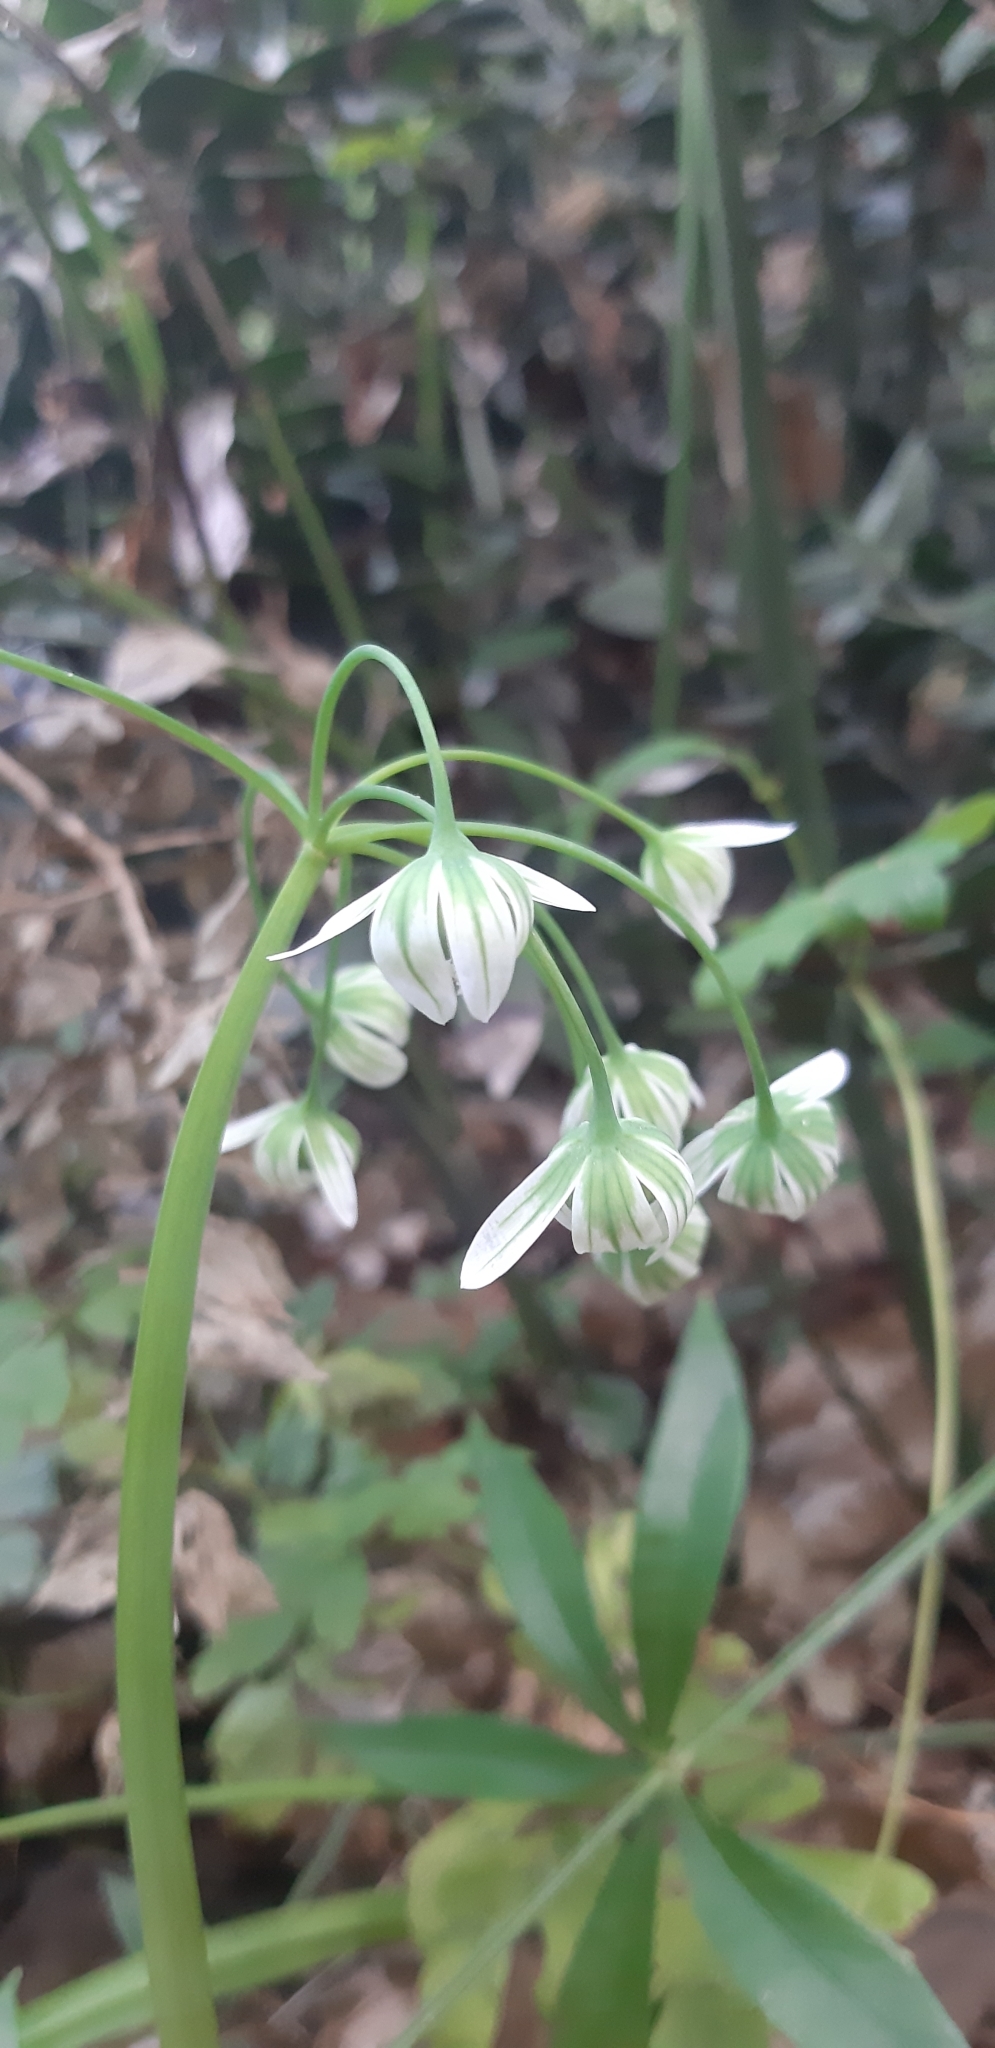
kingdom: Plantae
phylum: Tracheophyta
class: Liliopsida
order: Asparagales
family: Amaryllidaceae
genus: Allium
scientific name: Allium pendulinum
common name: Italian garlic
